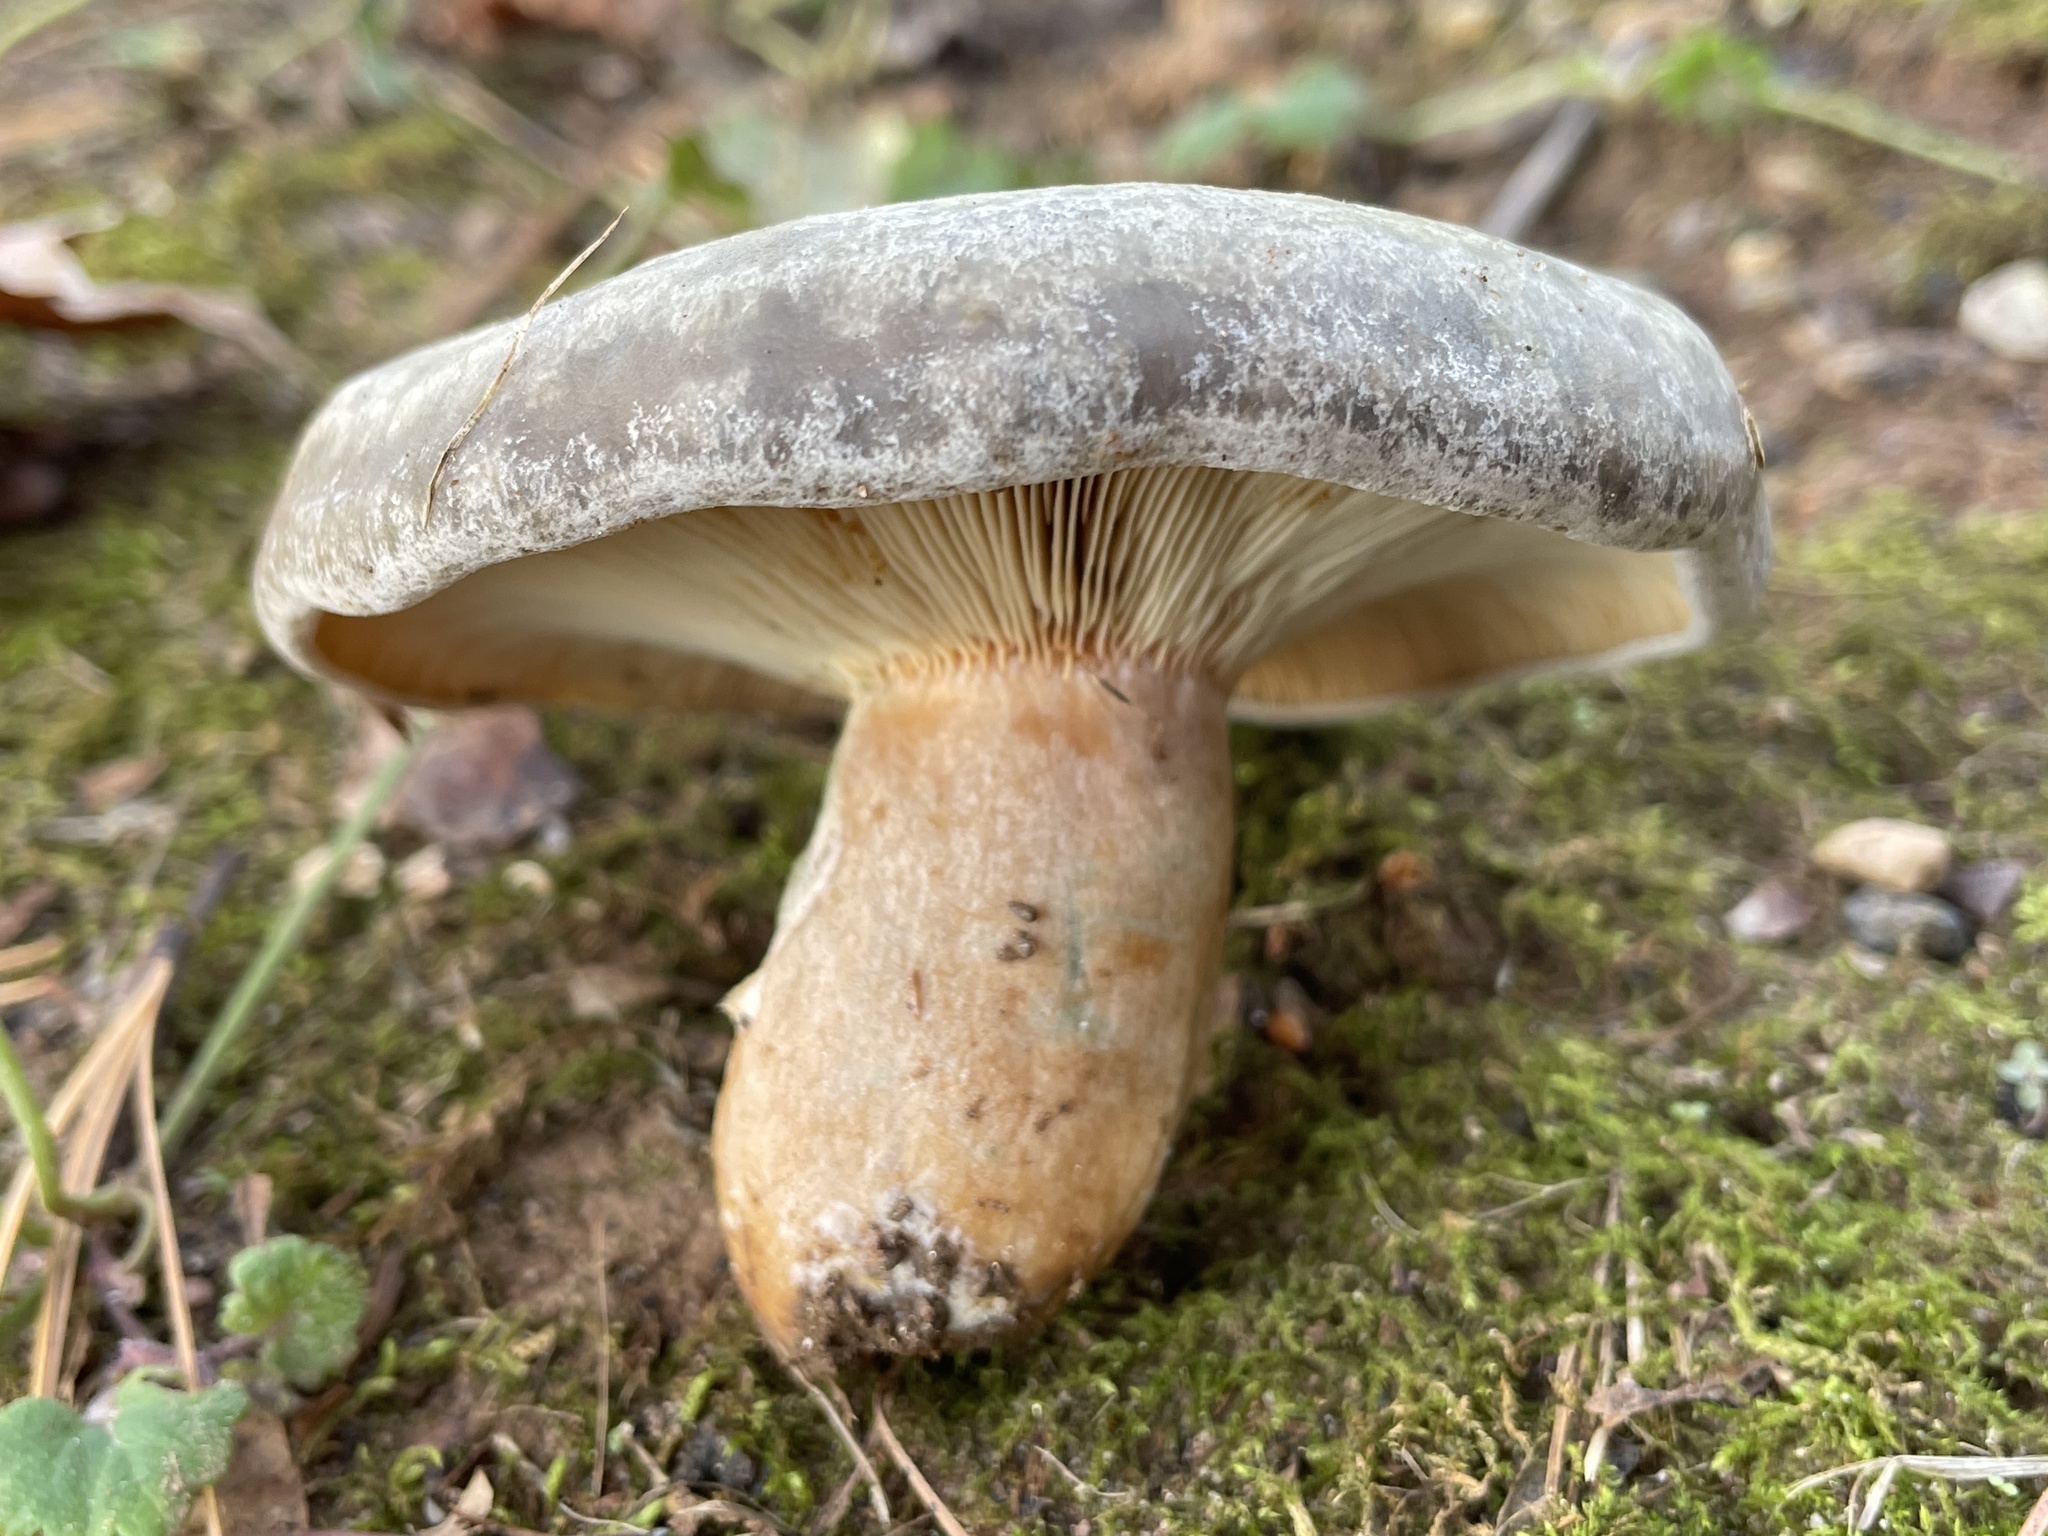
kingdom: Fungi
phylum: Basidiomycota
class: Agaricomycetes
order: Russulales
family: Russulaceae
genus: Lactarius
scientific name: Lactarius chelidonium
